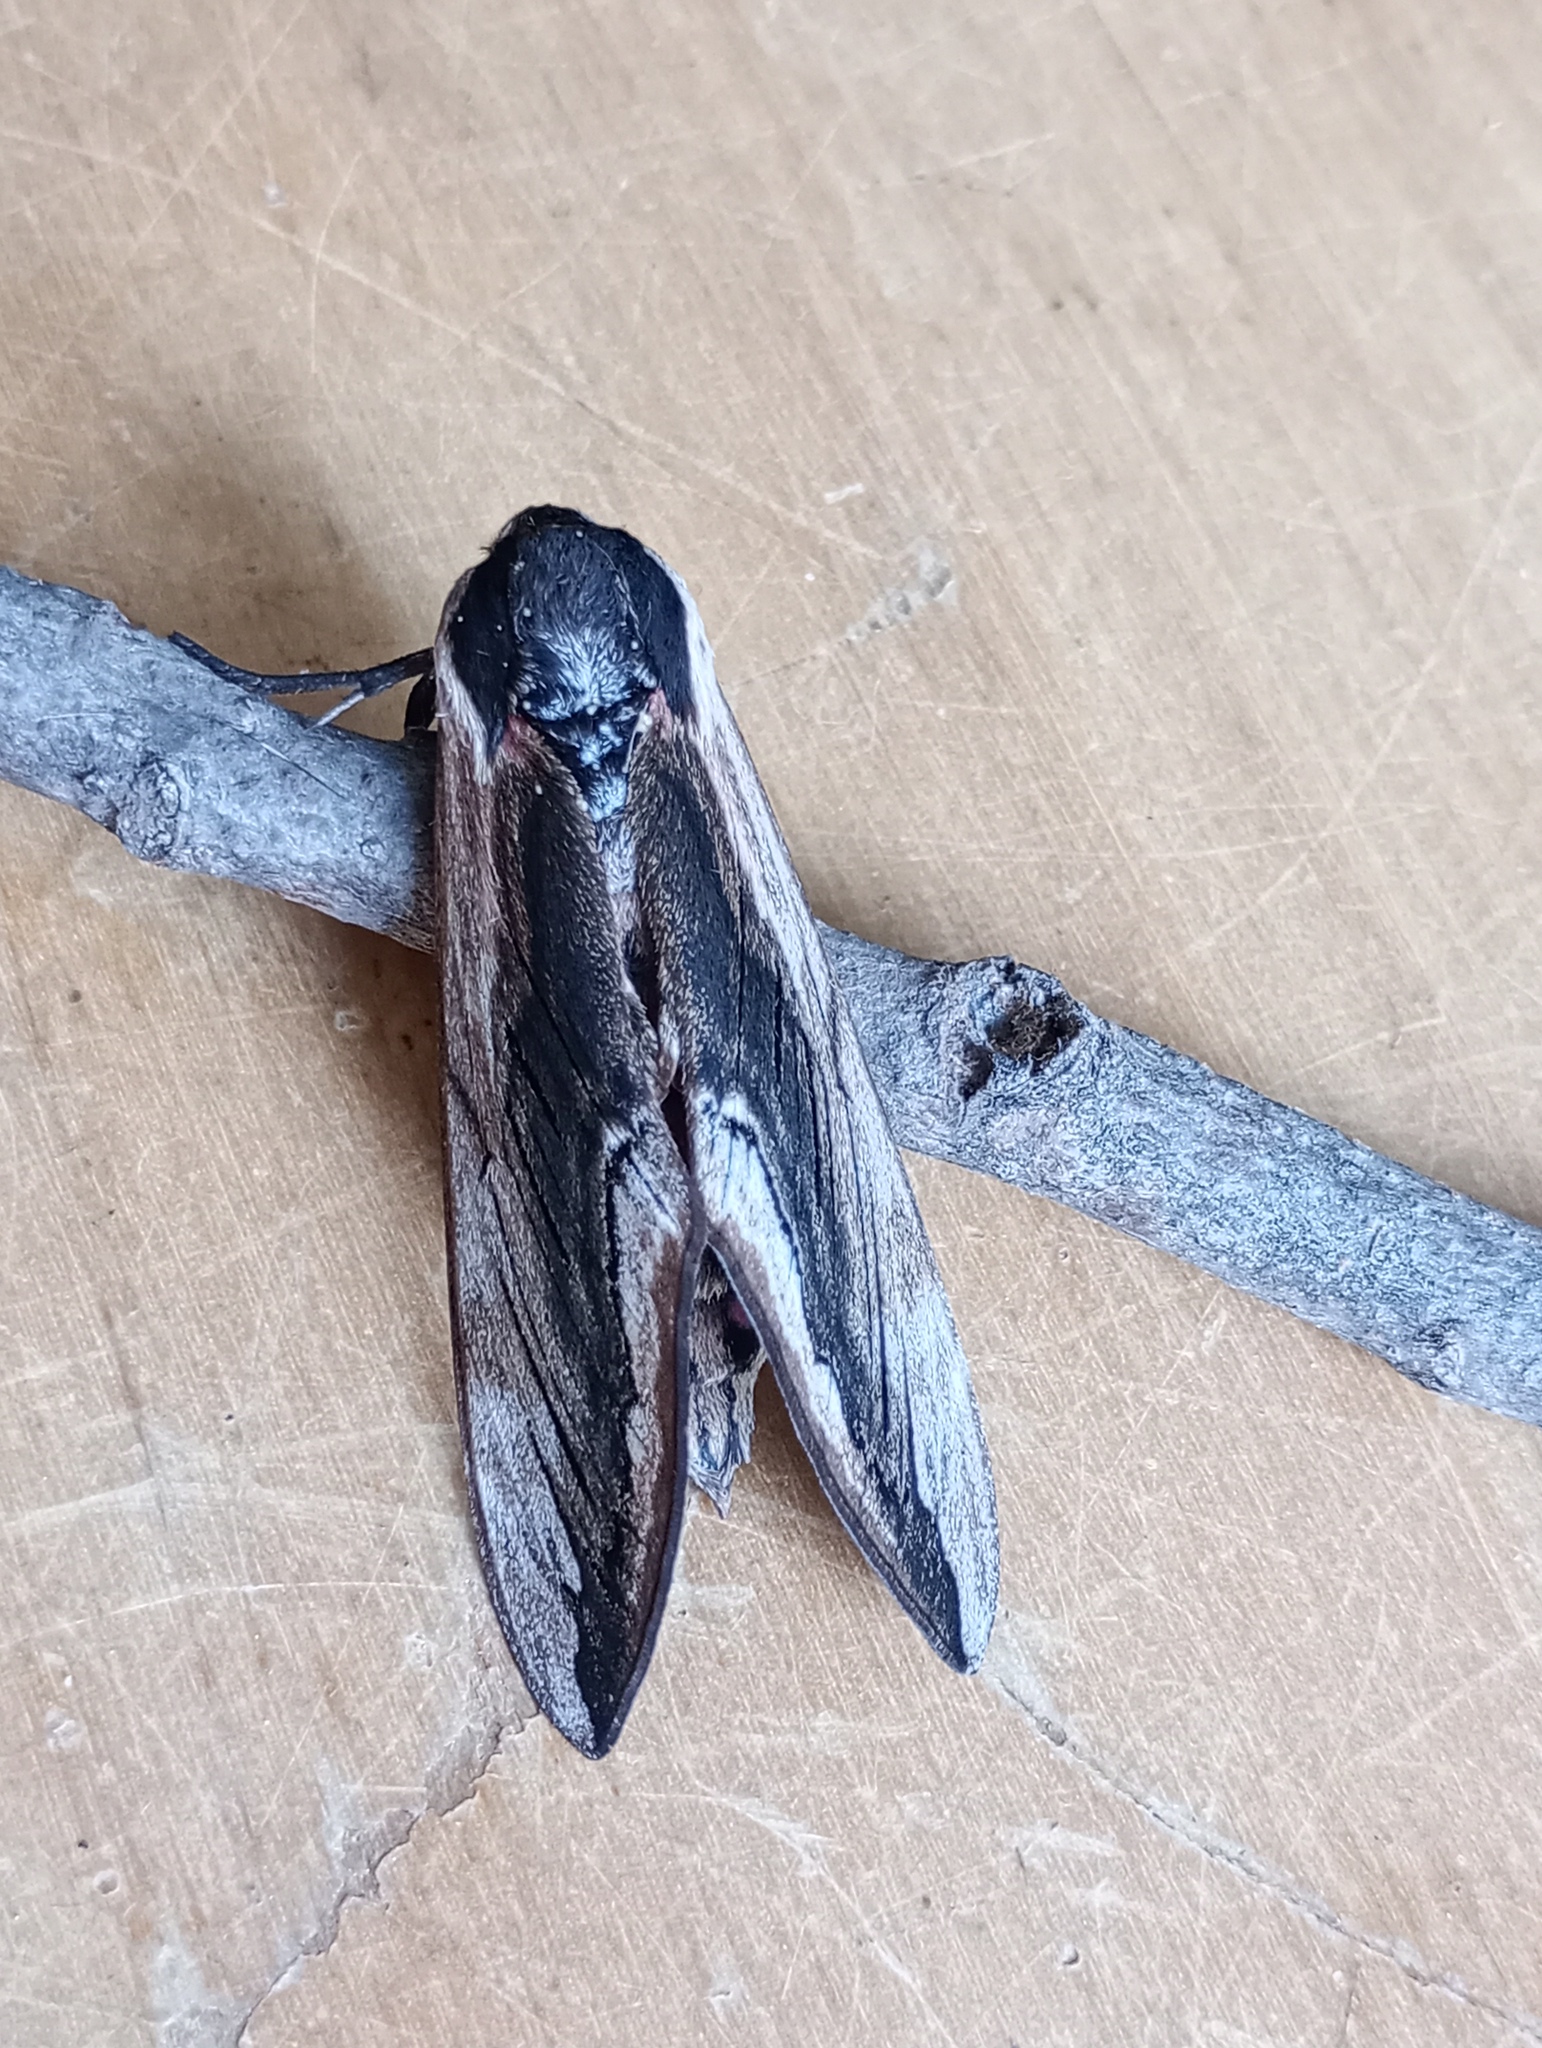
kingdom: Animalia
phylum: Arthropoda
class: Insecta
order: Lepidoptera
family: Sphingidae
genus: Sphinx
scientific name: Sphinx ligustri
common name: Privet hawk-moth
